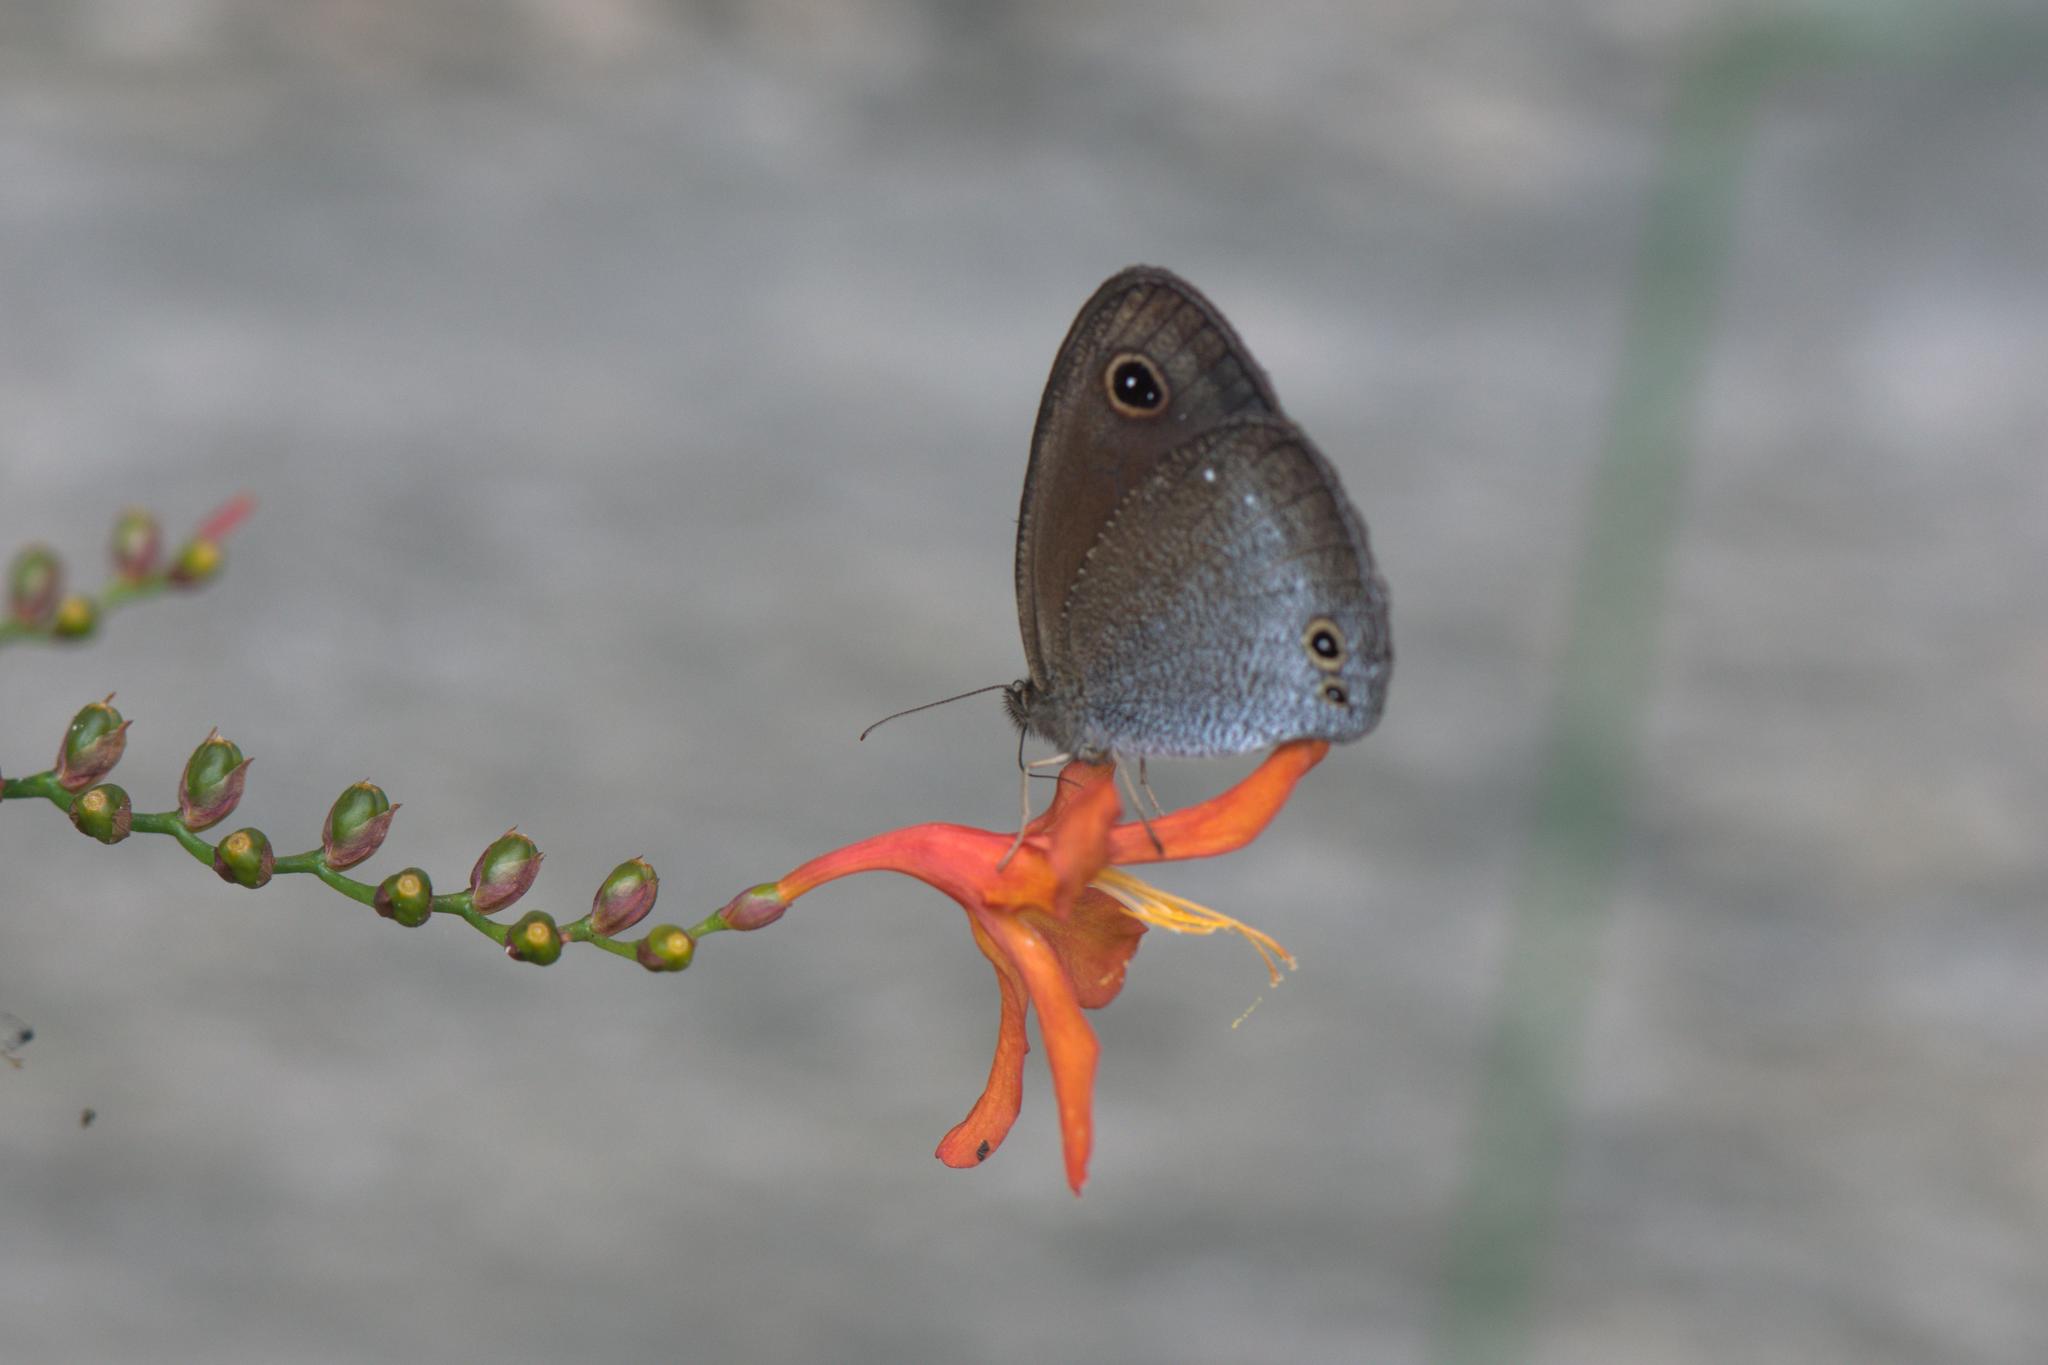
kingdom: Animalia
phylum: Arthropoda
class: Insecta
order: Lepidoptera
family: Nymphalidae
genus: Callerebia
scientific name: Callerebia scanda
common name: Pallid argus
